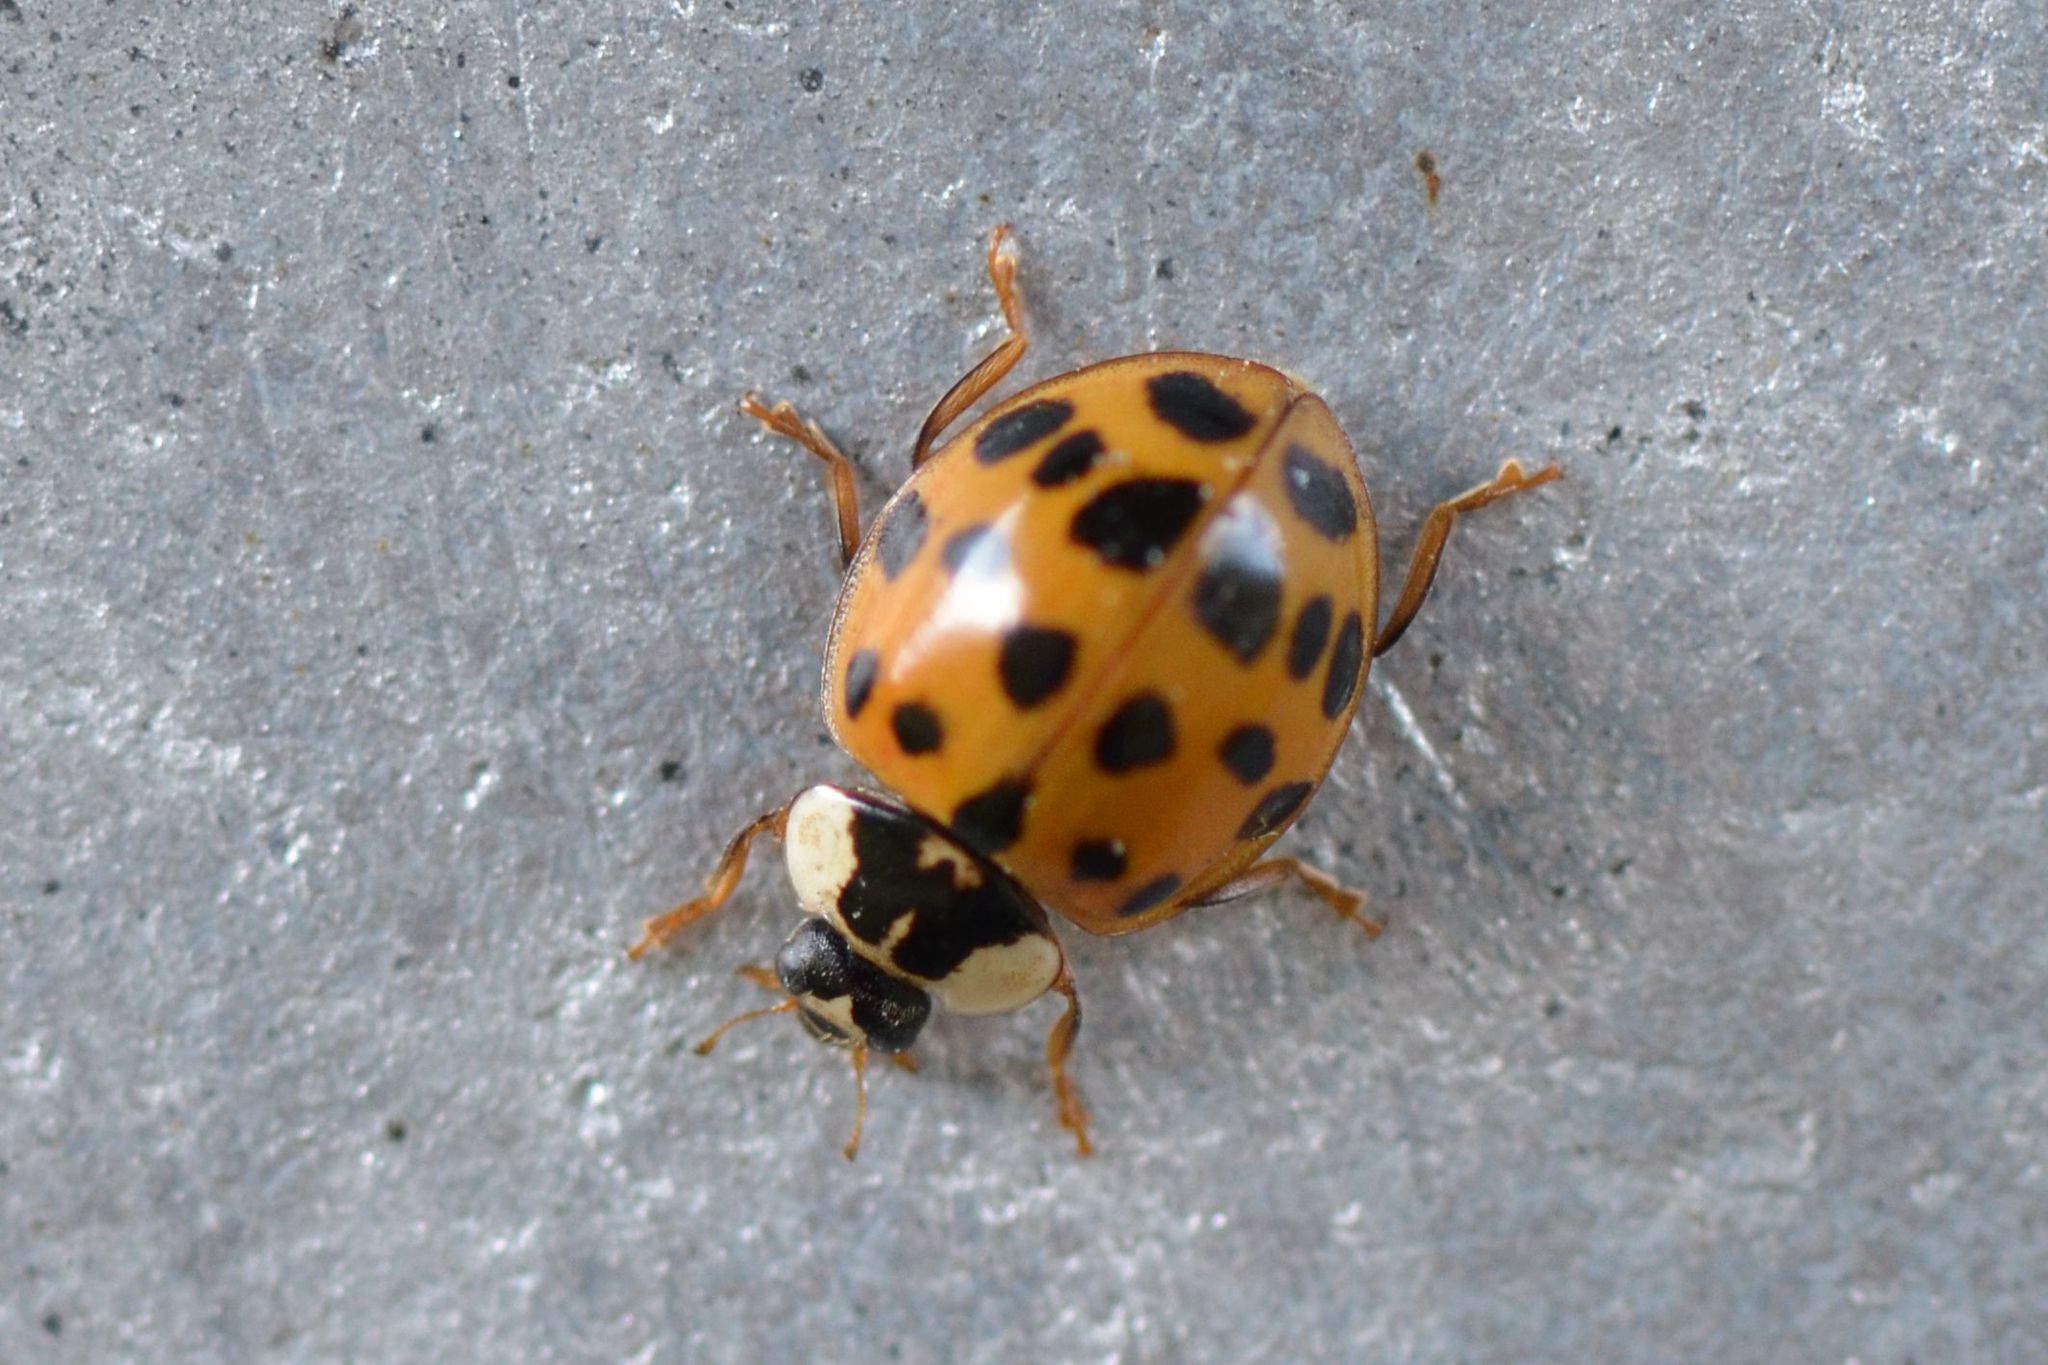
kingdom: Animalia
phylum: Arthropoda
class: Insecta
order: Coleoptera
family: Coccinellidae
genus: Harmonia
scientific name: Harmonia axyridis
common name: Harlequin ladybird
